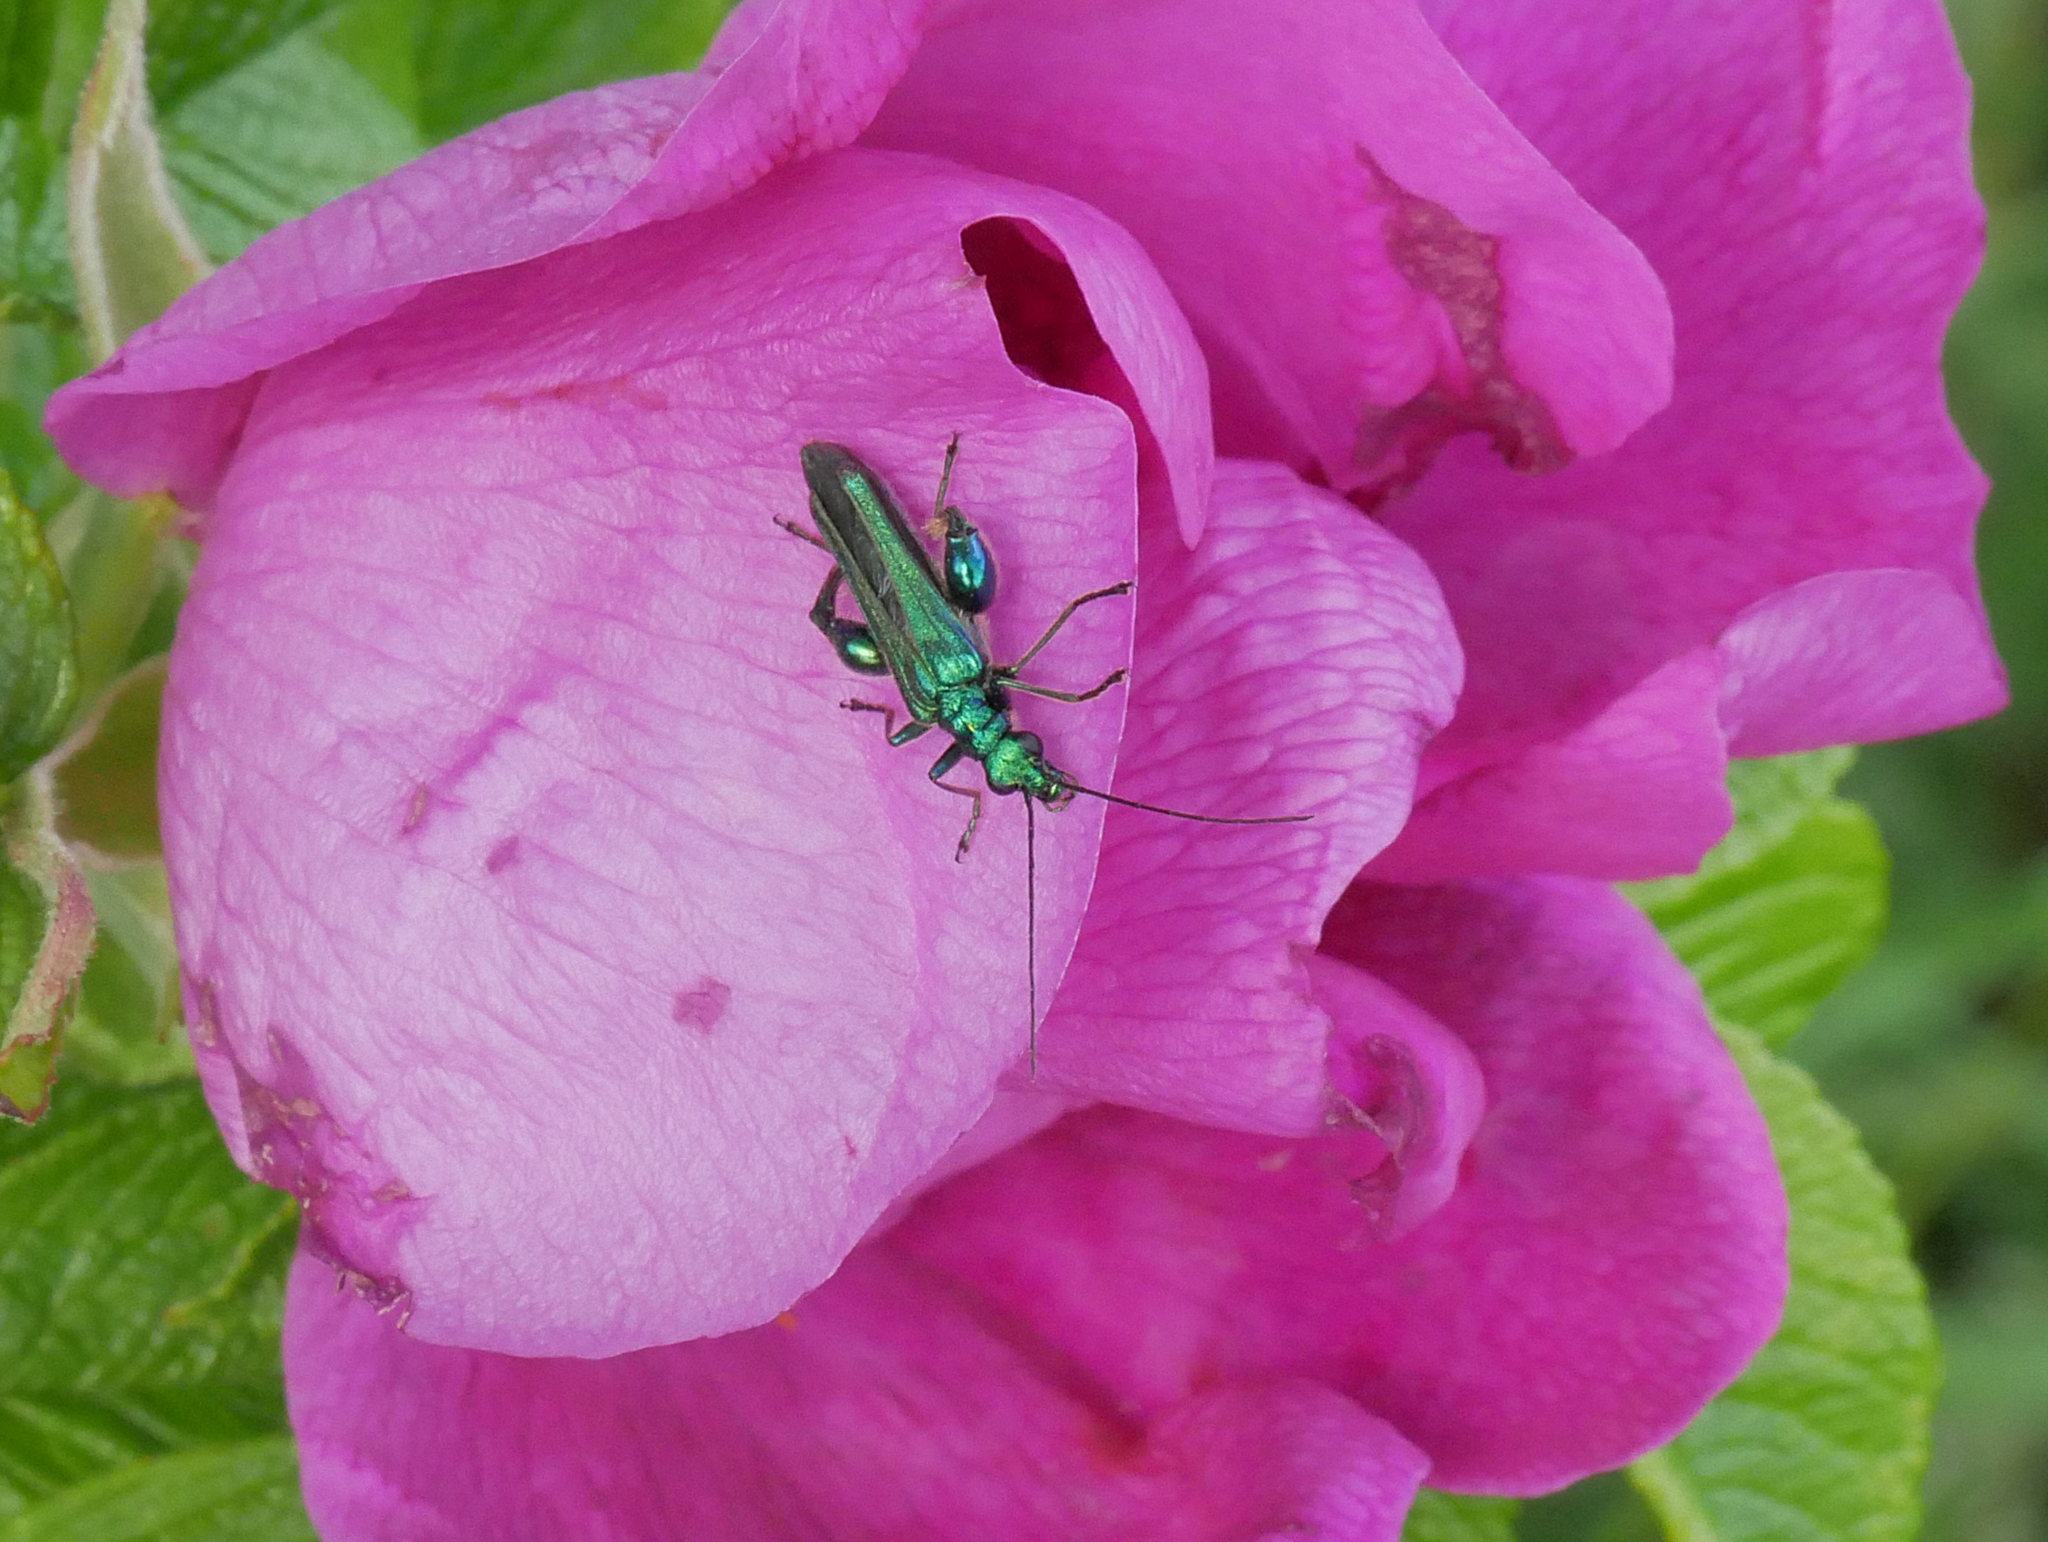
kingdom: Animalia
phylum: Arthropoda
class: Insecta
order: Coleoptera
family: Oedemeridae
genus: Oedemera
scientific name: Oedemera nobilis
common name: Swollen-thighed beetle
